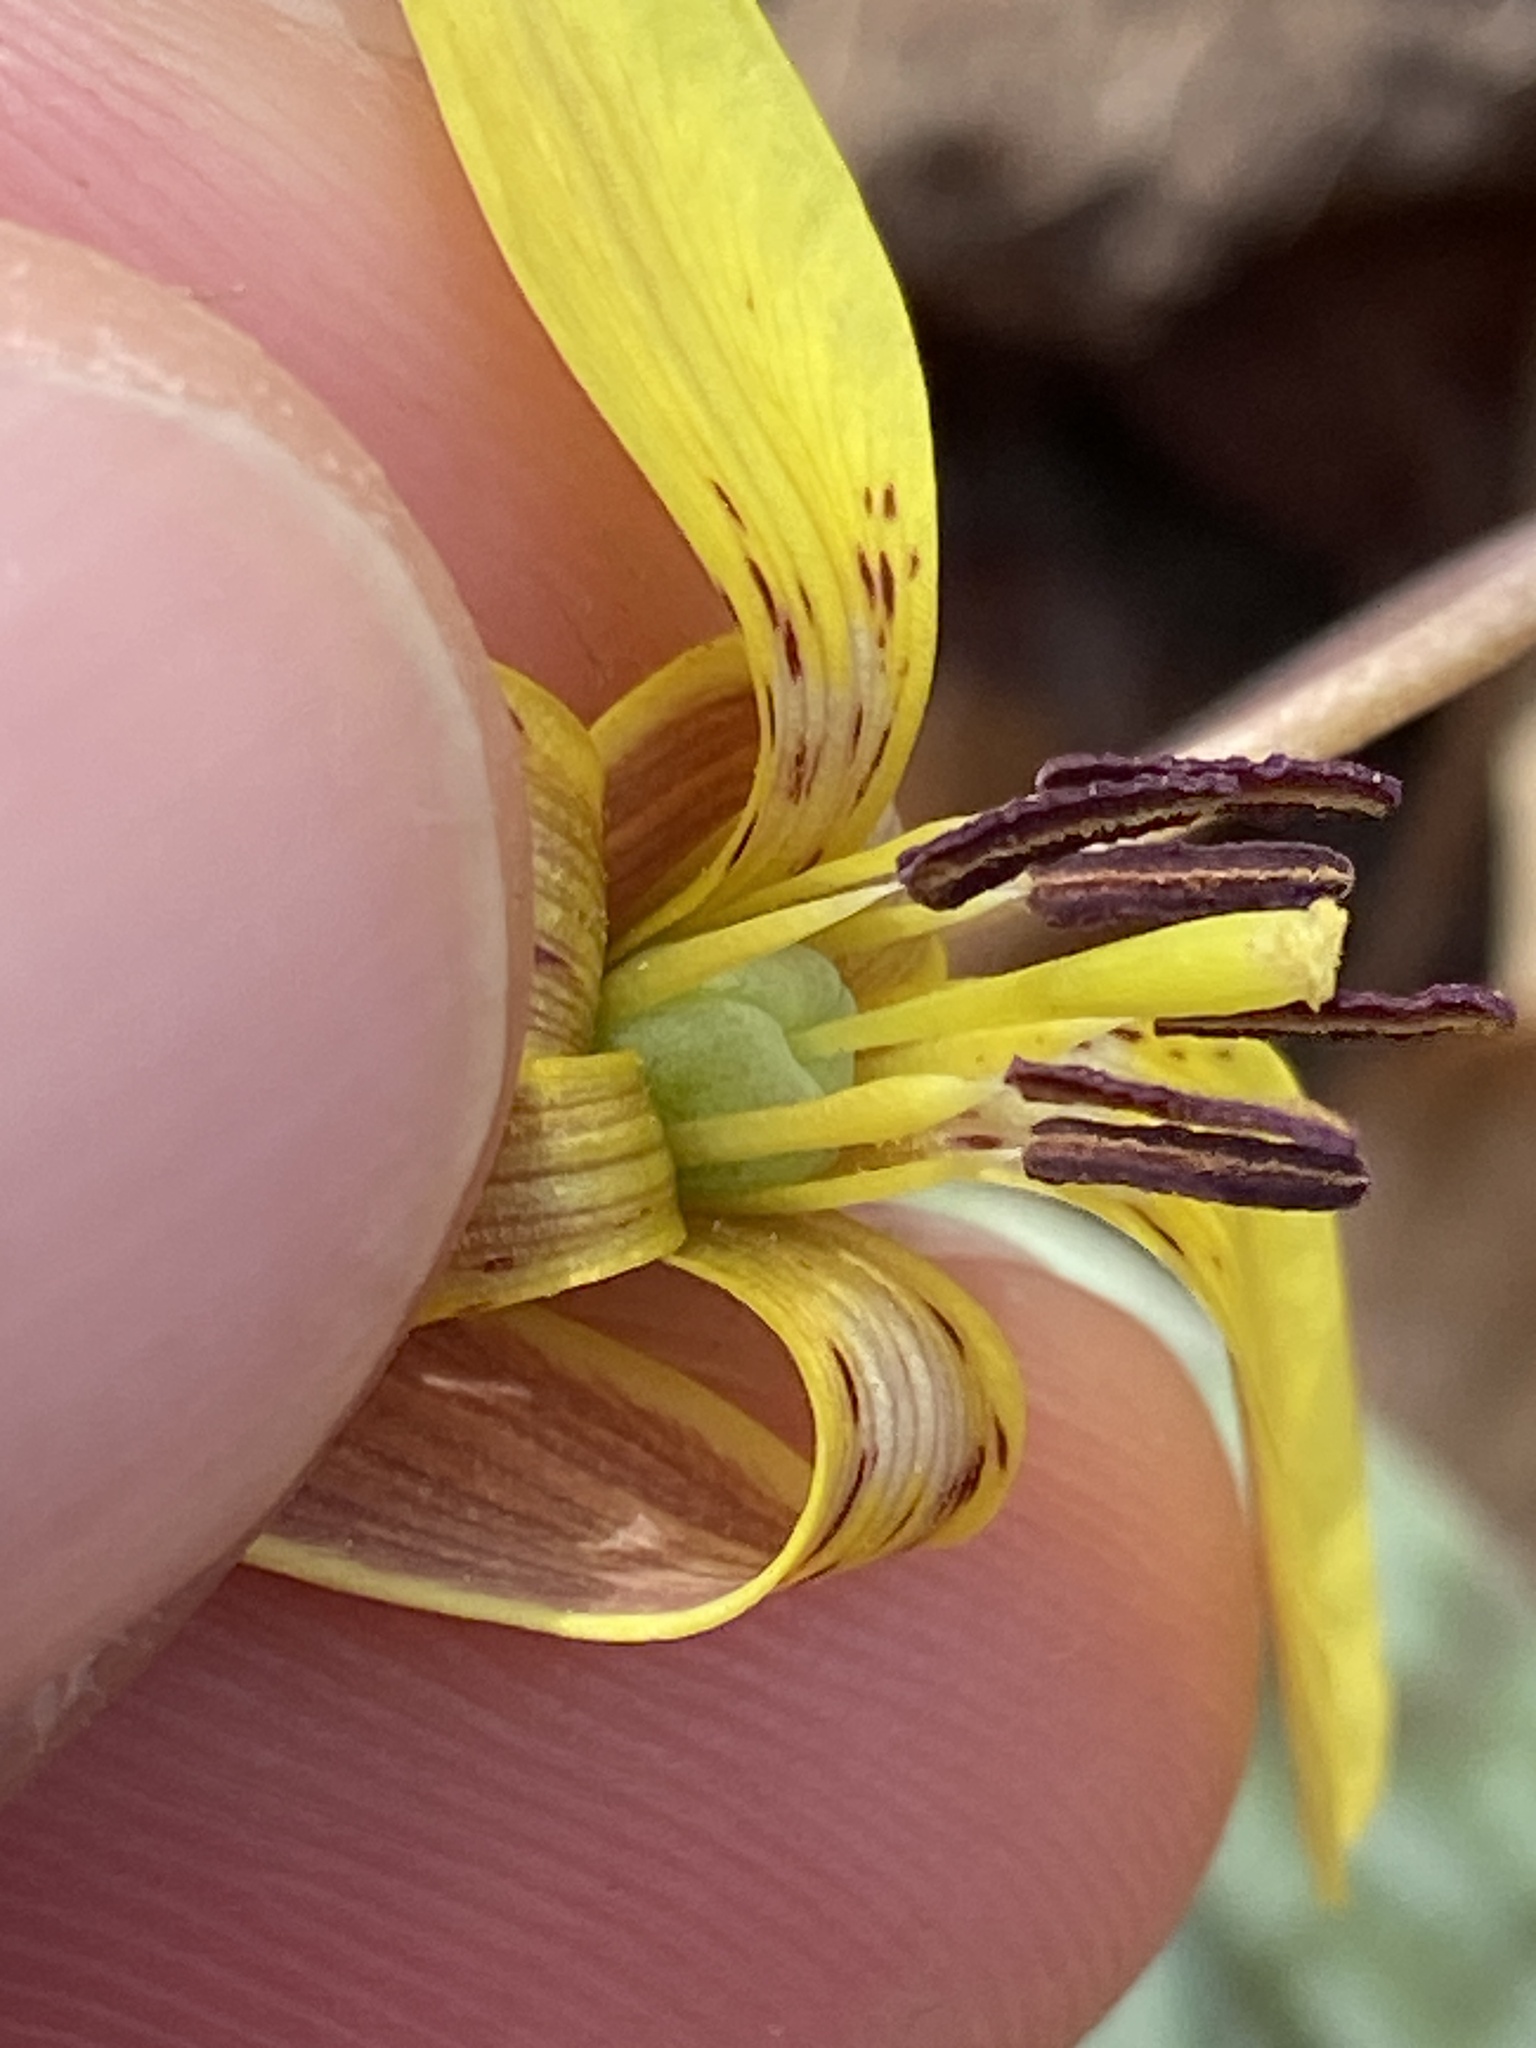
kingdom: Plantae
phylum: Tracheophyta
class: Liliopsida
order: Liliales
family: Liliaceae
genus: Erythronium
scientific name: Erythronium umbilicatum
